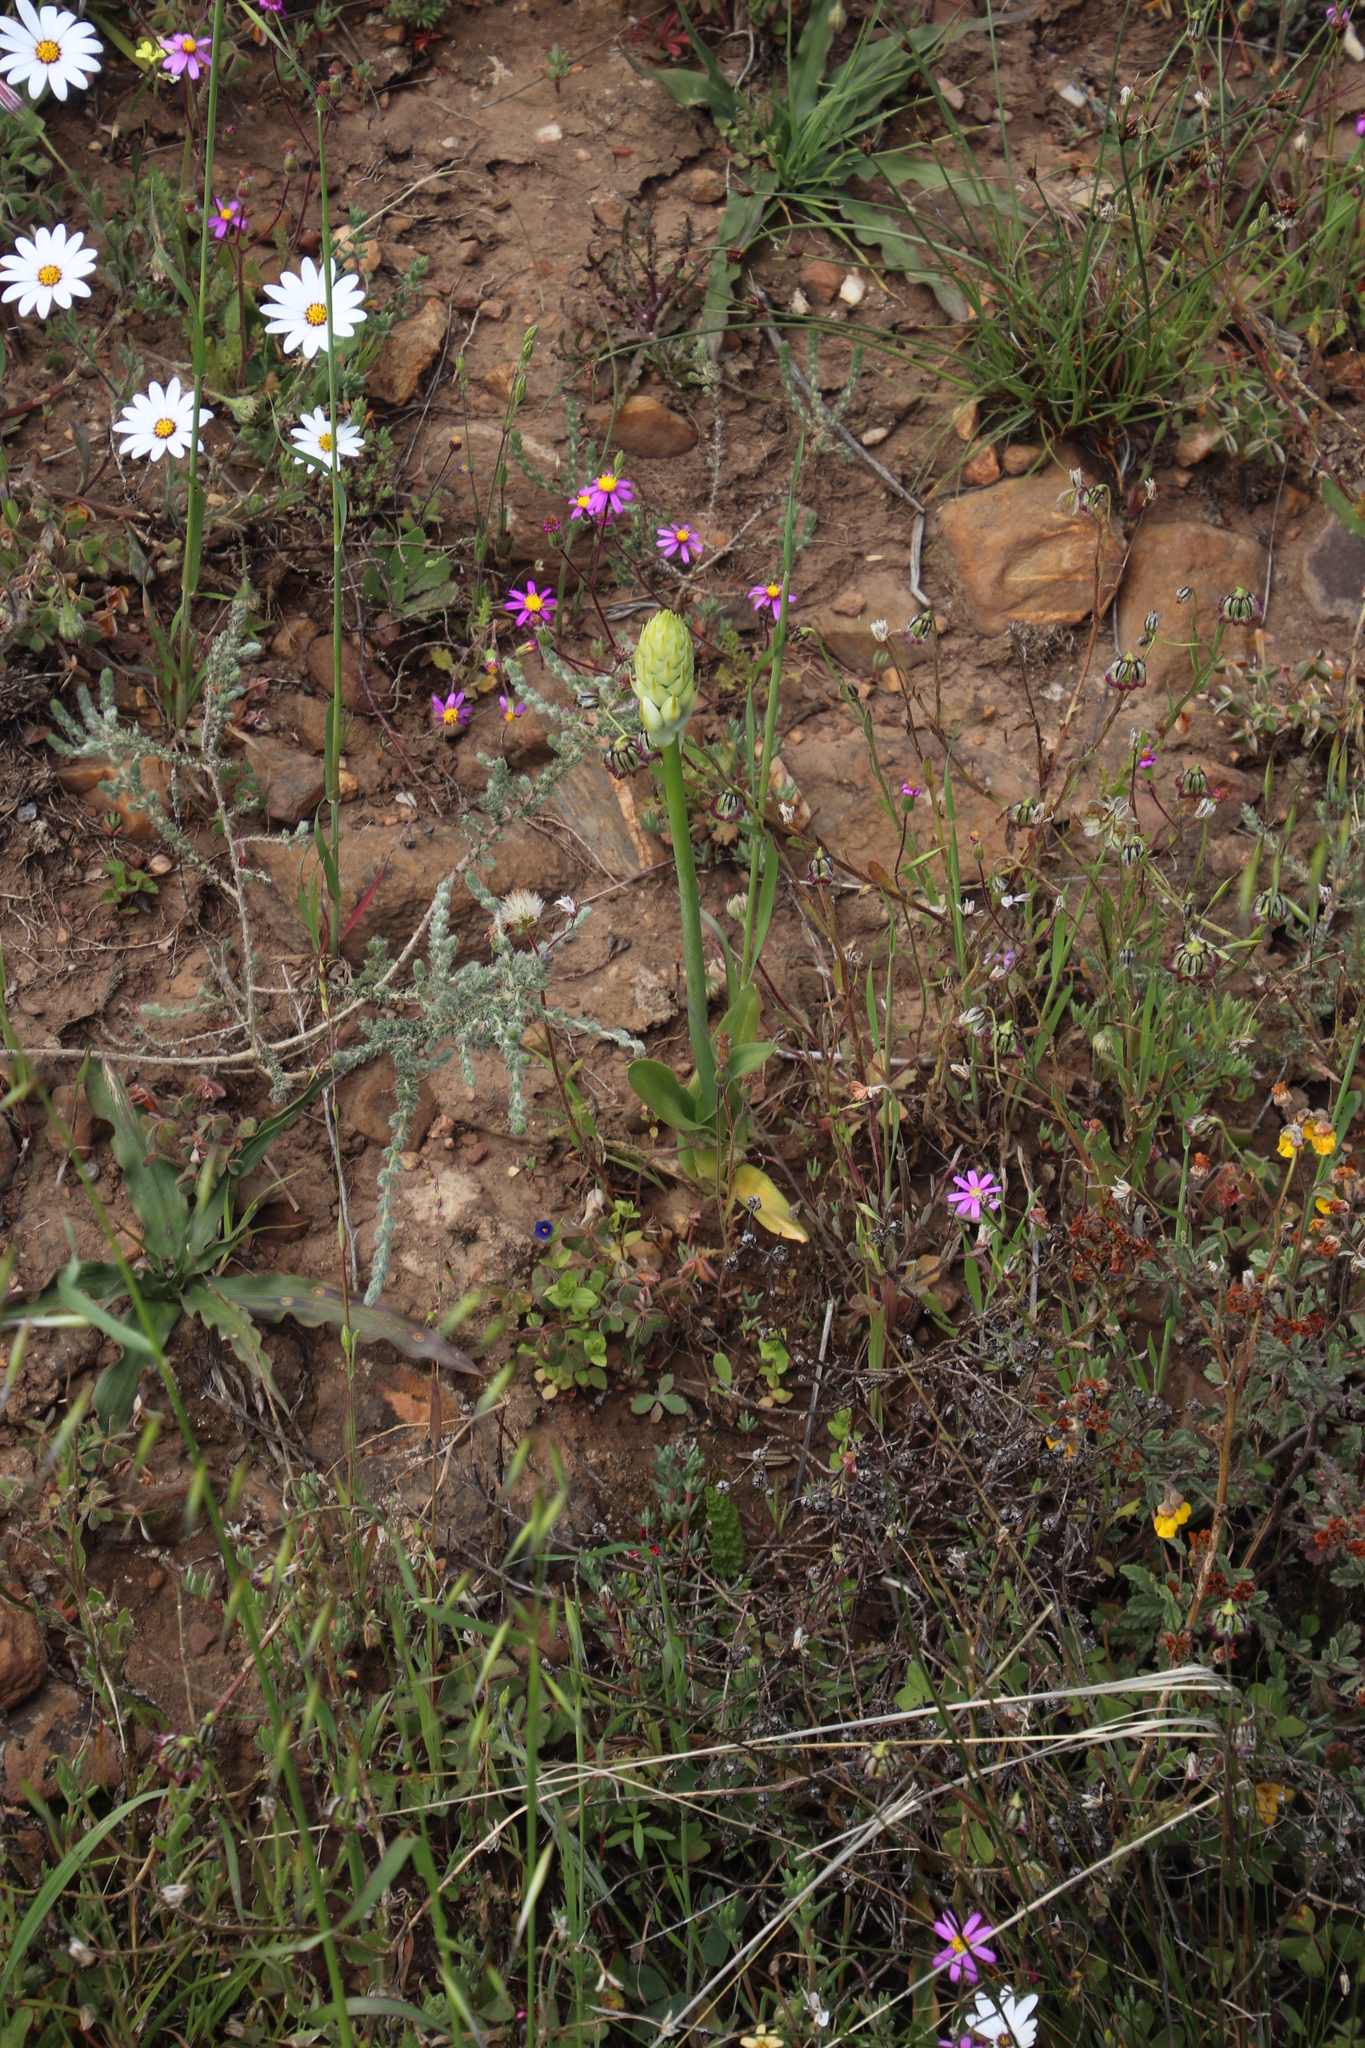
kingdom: Plantae
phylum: Tracheophyta
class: Liliopsida
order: Asparagales
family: Asparagaceae
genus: Ornithogalum
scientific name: Ornithogalum thyrsoides
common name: Chincherinchee
